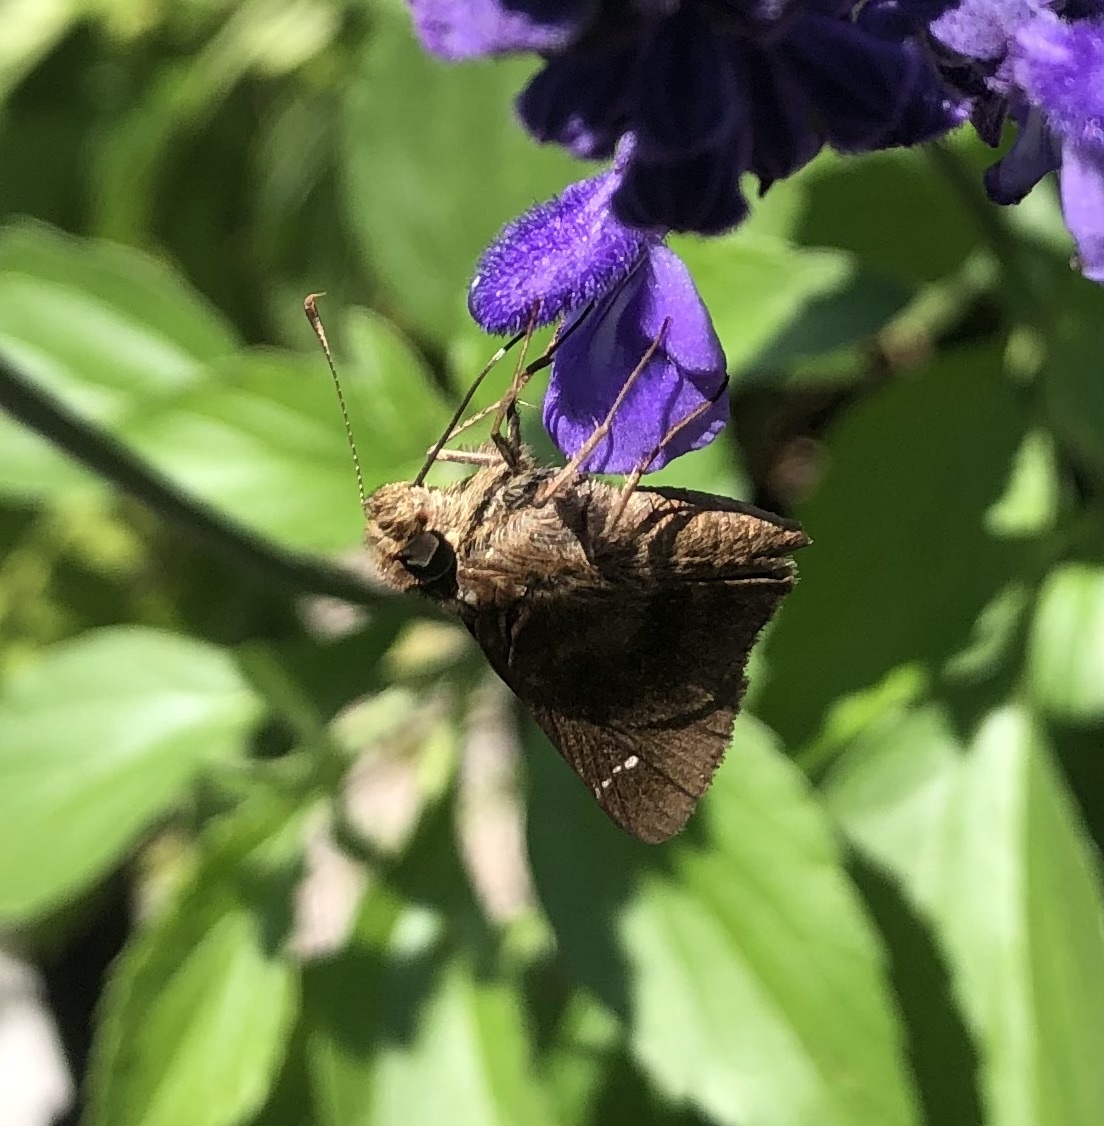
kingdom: Animalia
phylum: Arthropoda
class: Insecta
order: Lepidoptera
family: Hesperiidae
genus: Lerema
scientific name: Lerema accius
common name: Clouded skipper
